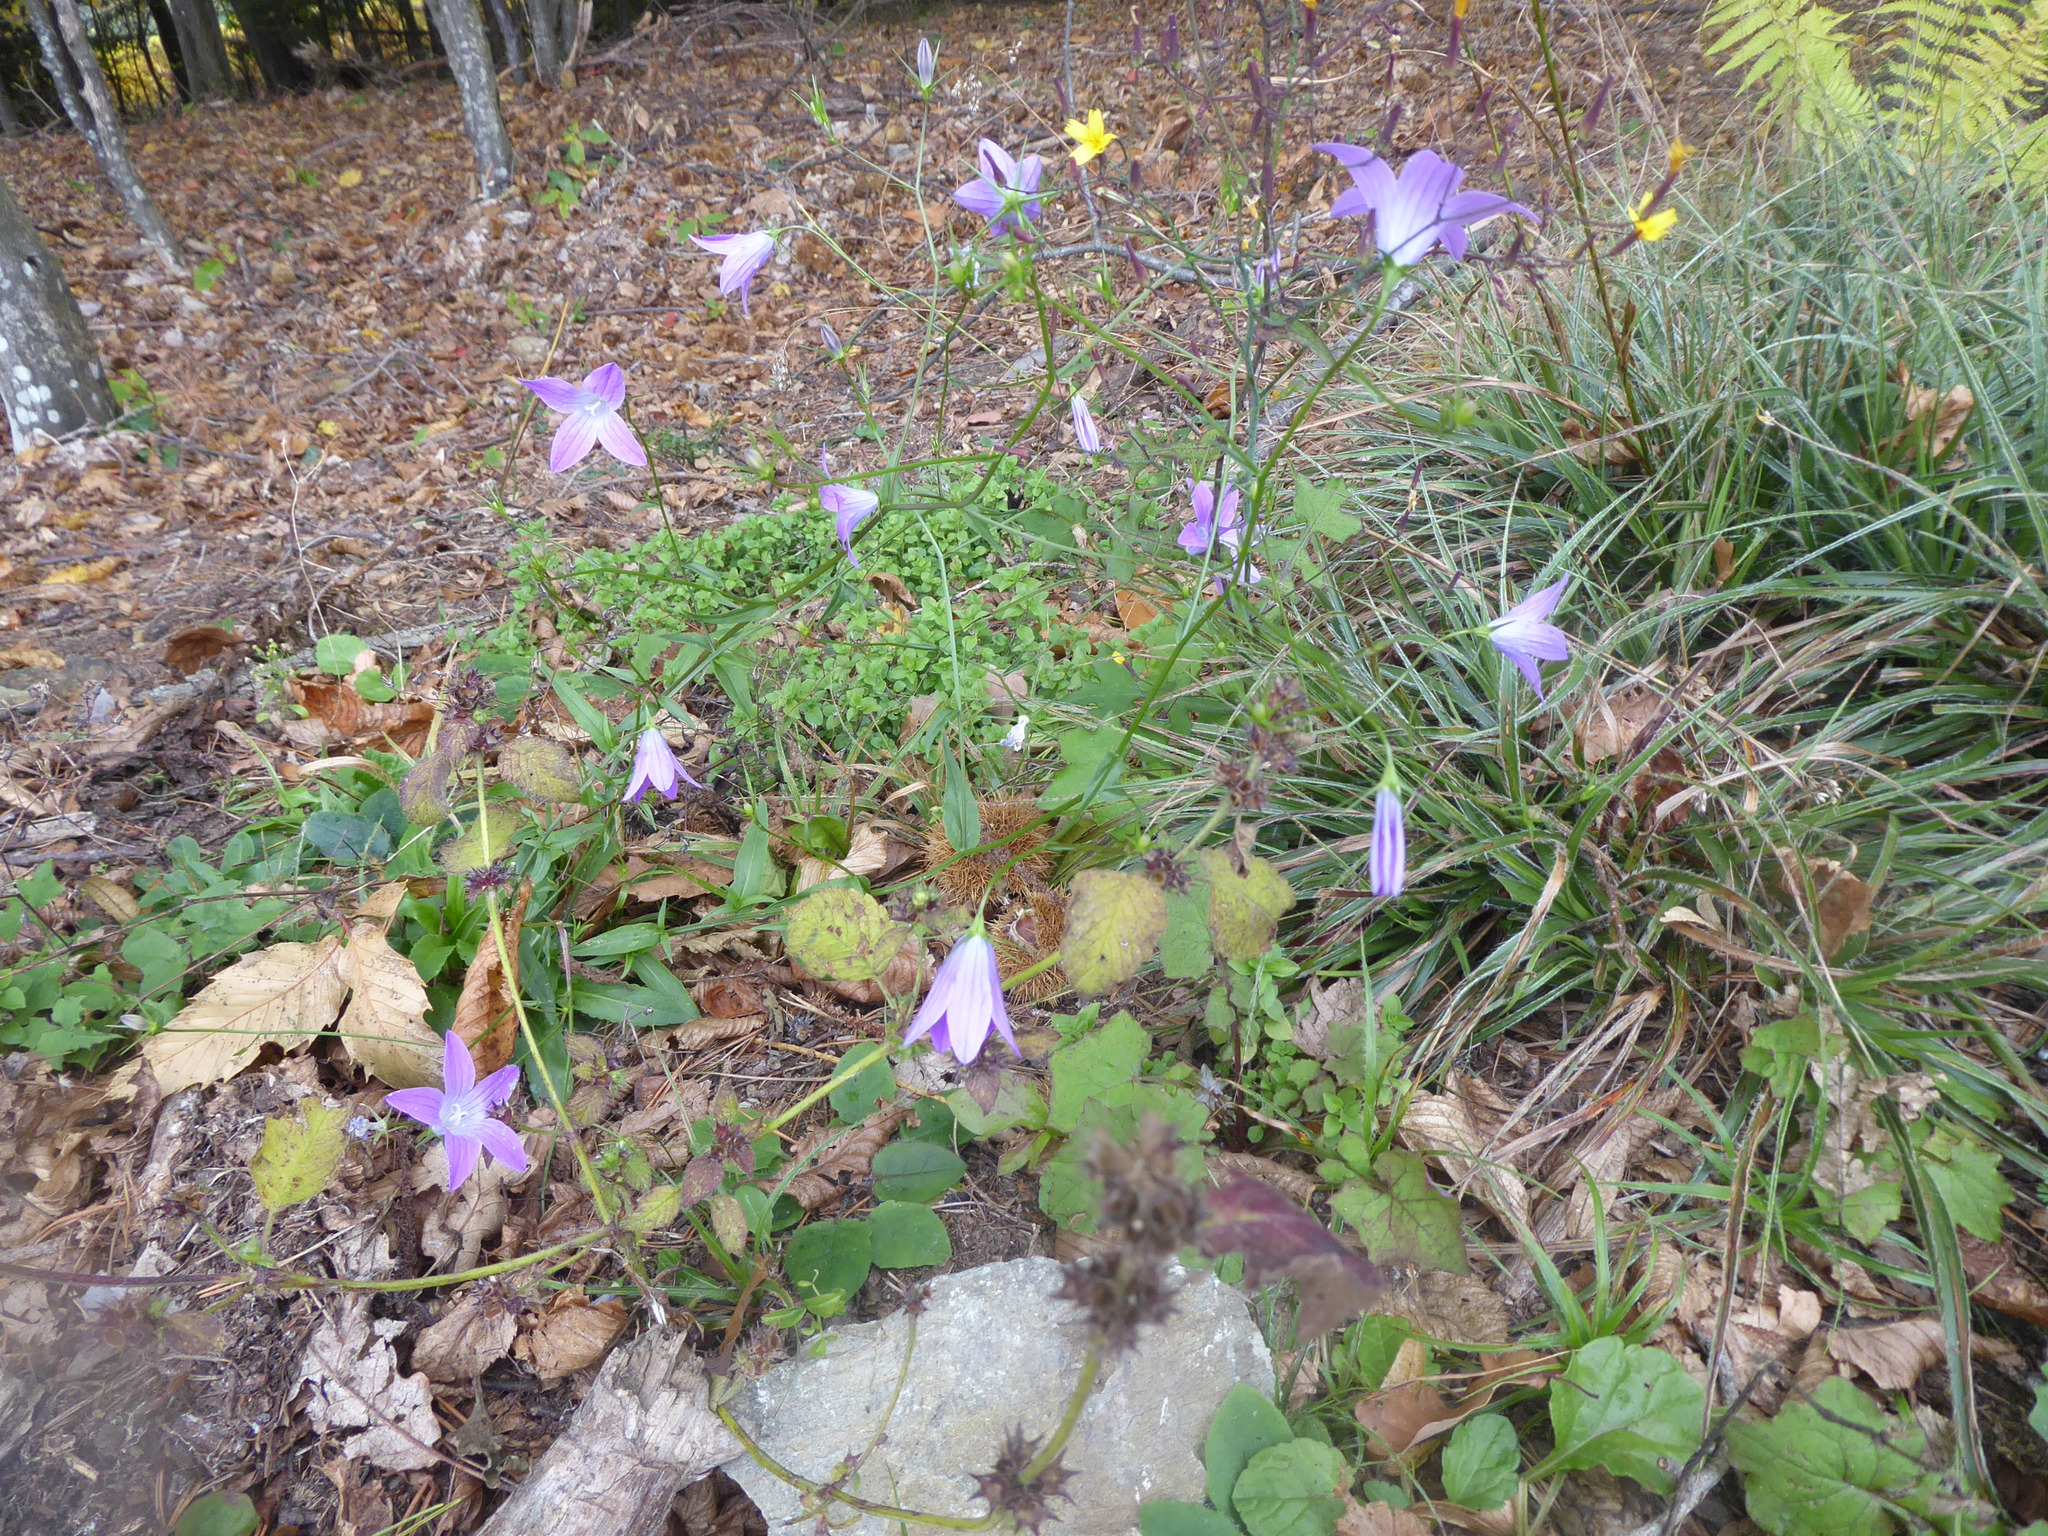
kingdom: Plantae
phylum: Tracheophyta
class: Magnoliopsida
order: Asterales
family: Campanulaceae
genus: Campanula
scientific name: Campanula patula
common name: Spreading bellflower
